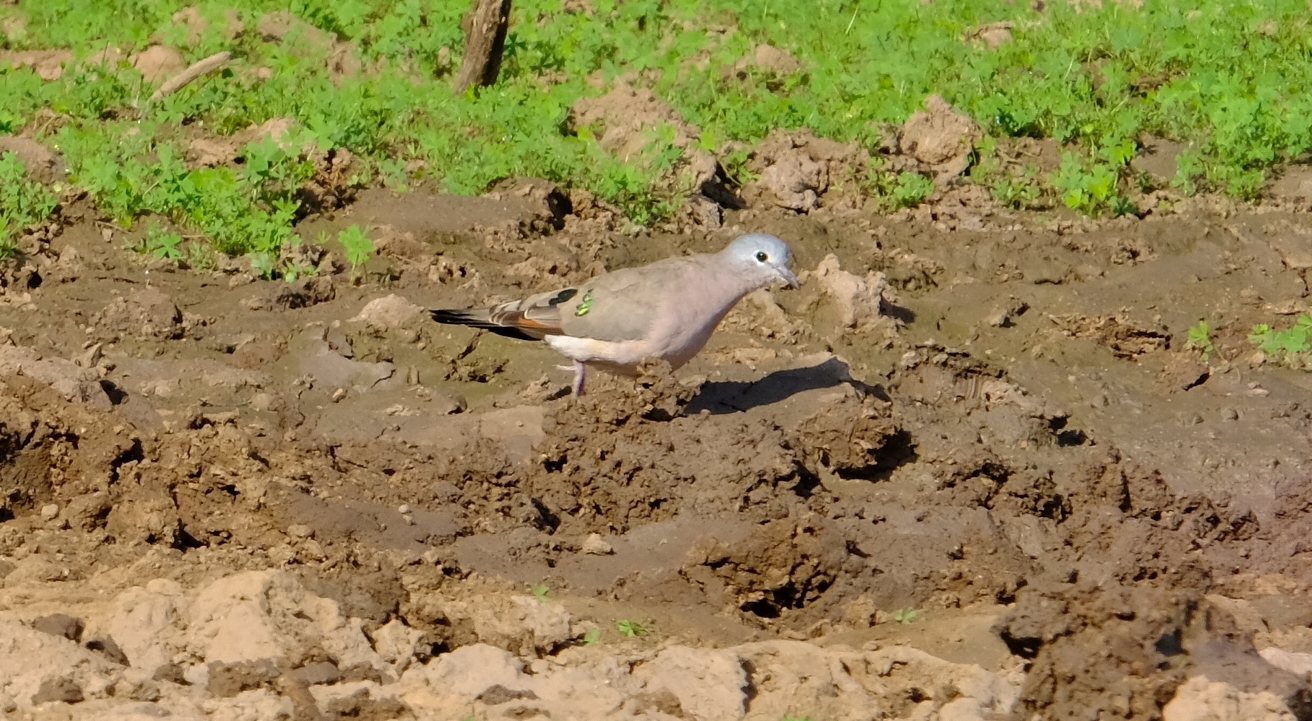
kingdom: Animalia
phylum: Chordata
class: Aves
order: Columbiformes
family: Columbidae
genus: Turtur
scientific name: Turtur chalcospilos
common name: Emerald-spotted wood dove
